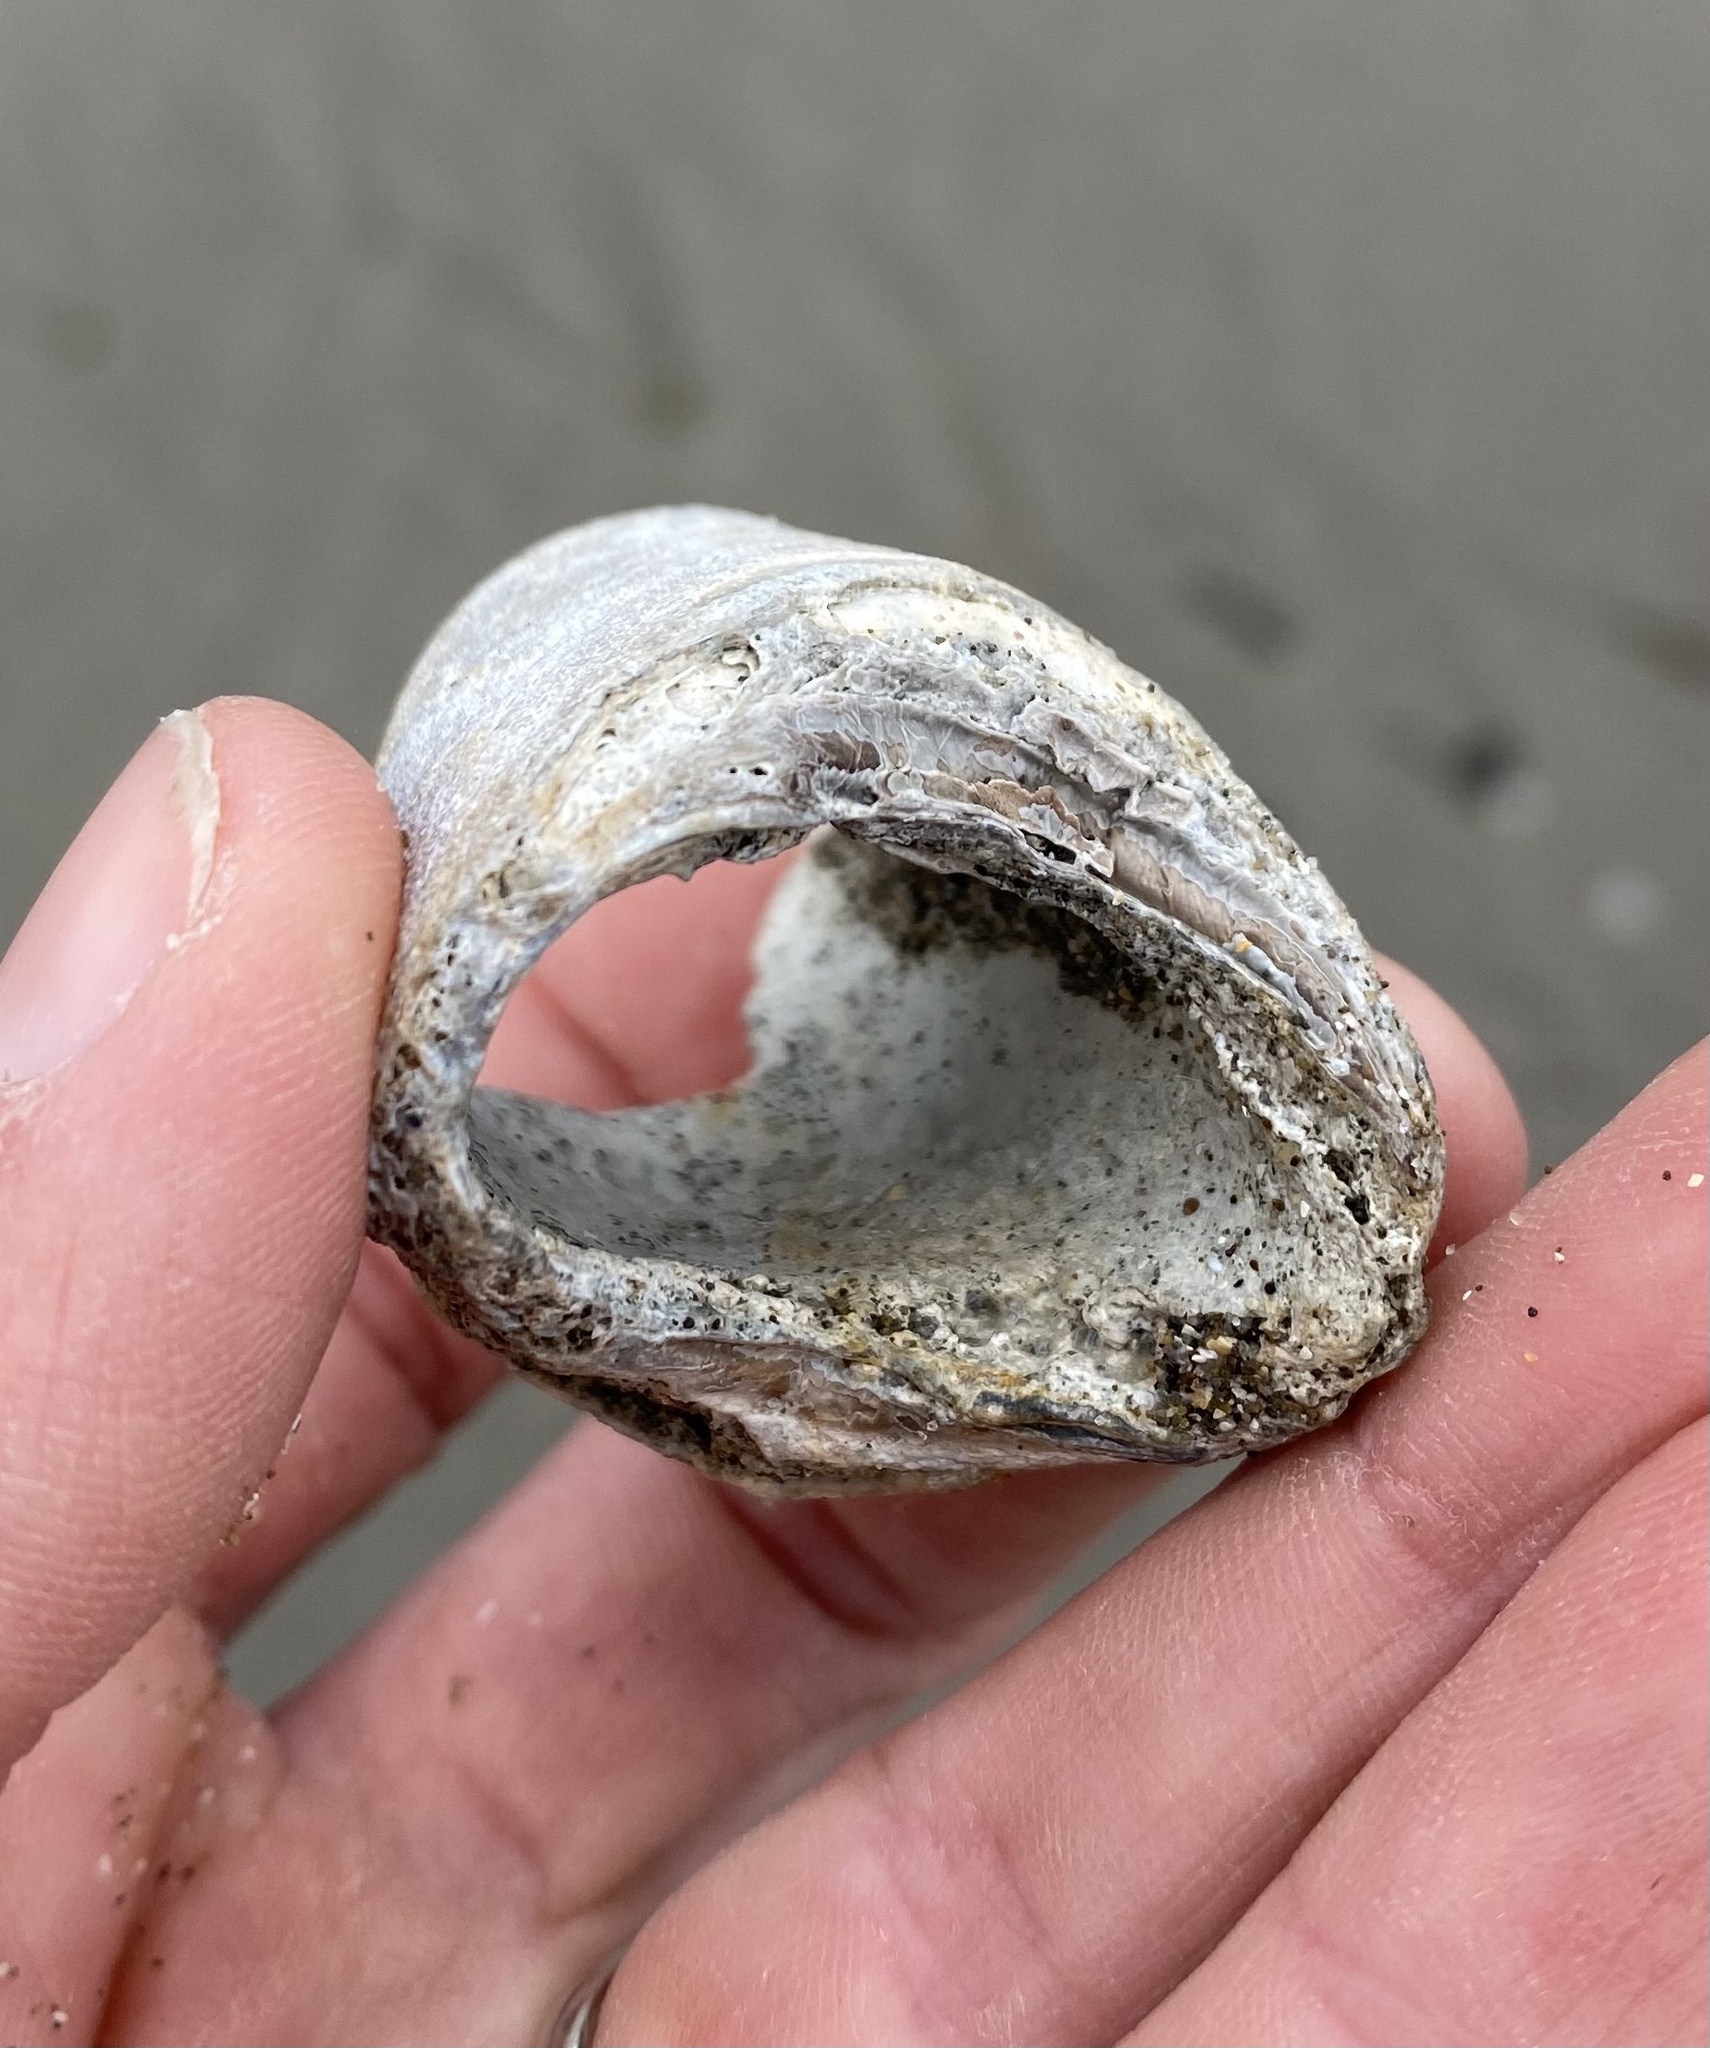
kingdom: Animalia
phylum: Mollusca
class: Bivalvia
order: Myida
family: Pholadidae
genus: Parapholas
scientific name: Parapholas californica
